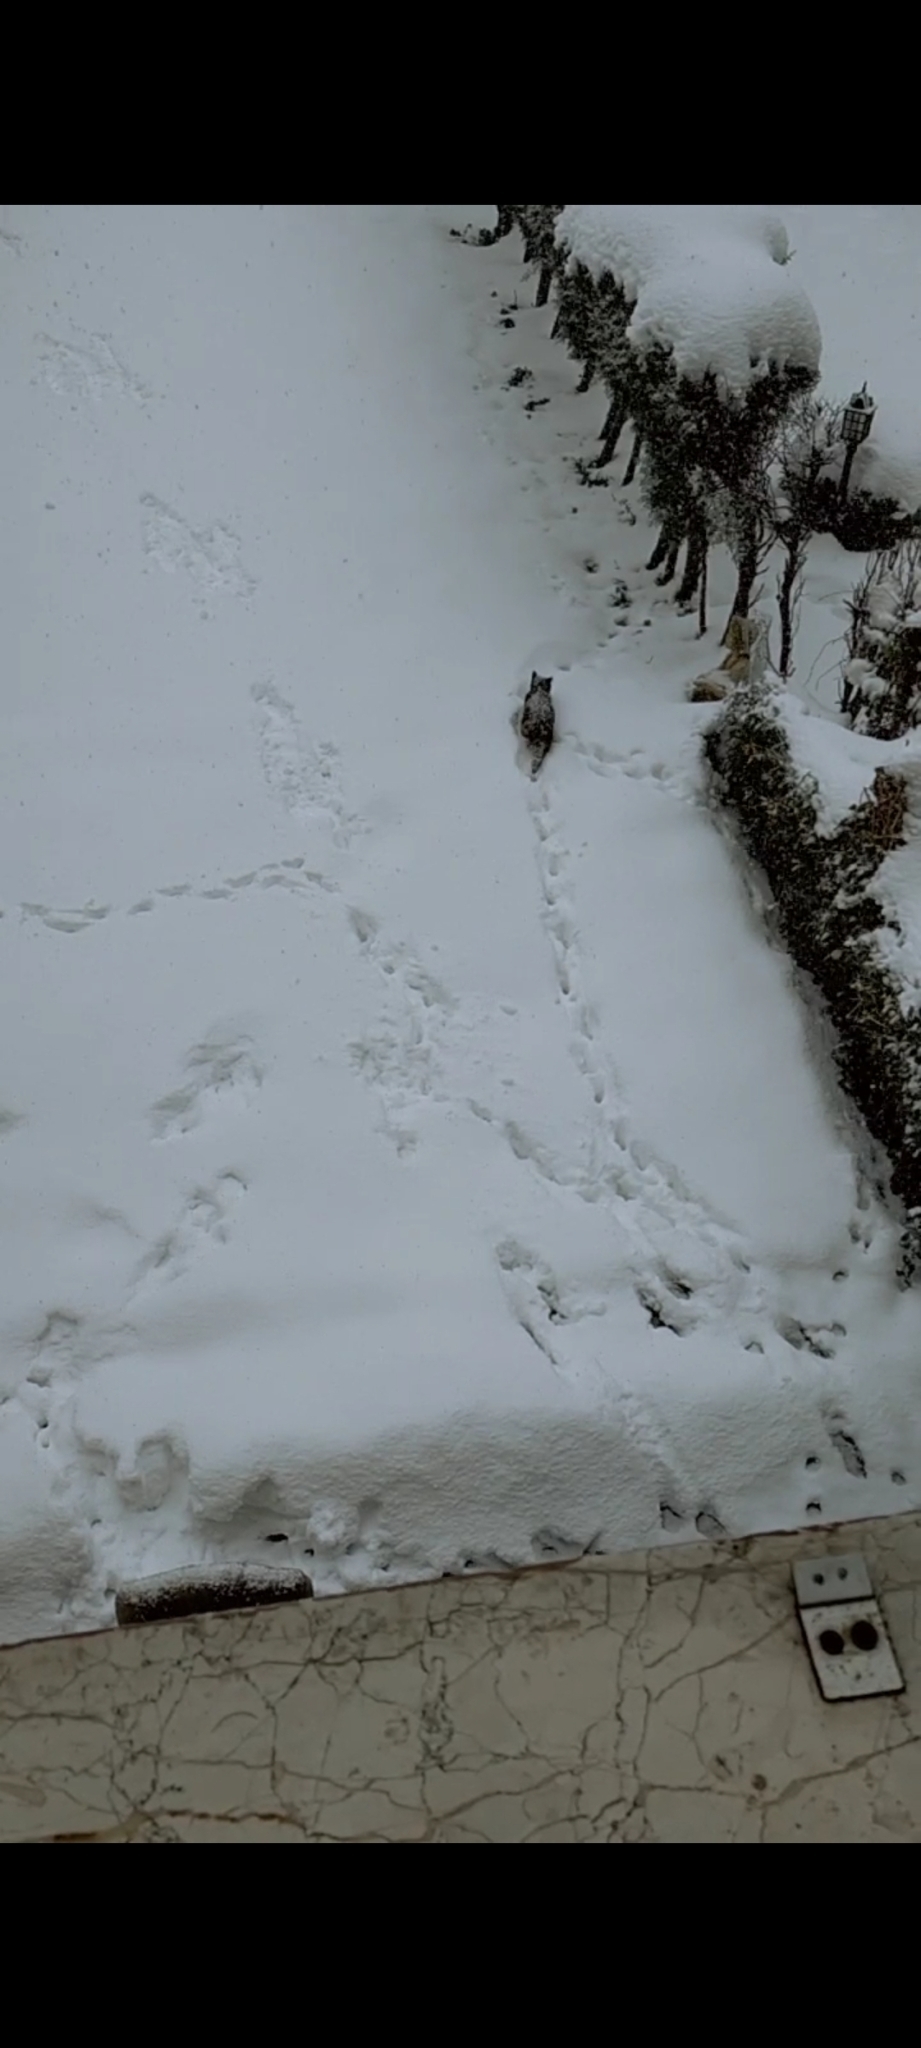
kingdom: Animalia
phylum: Chordata
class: Mammalia
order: Carnivora
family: Felidae
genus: Felis
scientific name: Felis catus
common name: Domestic cat
